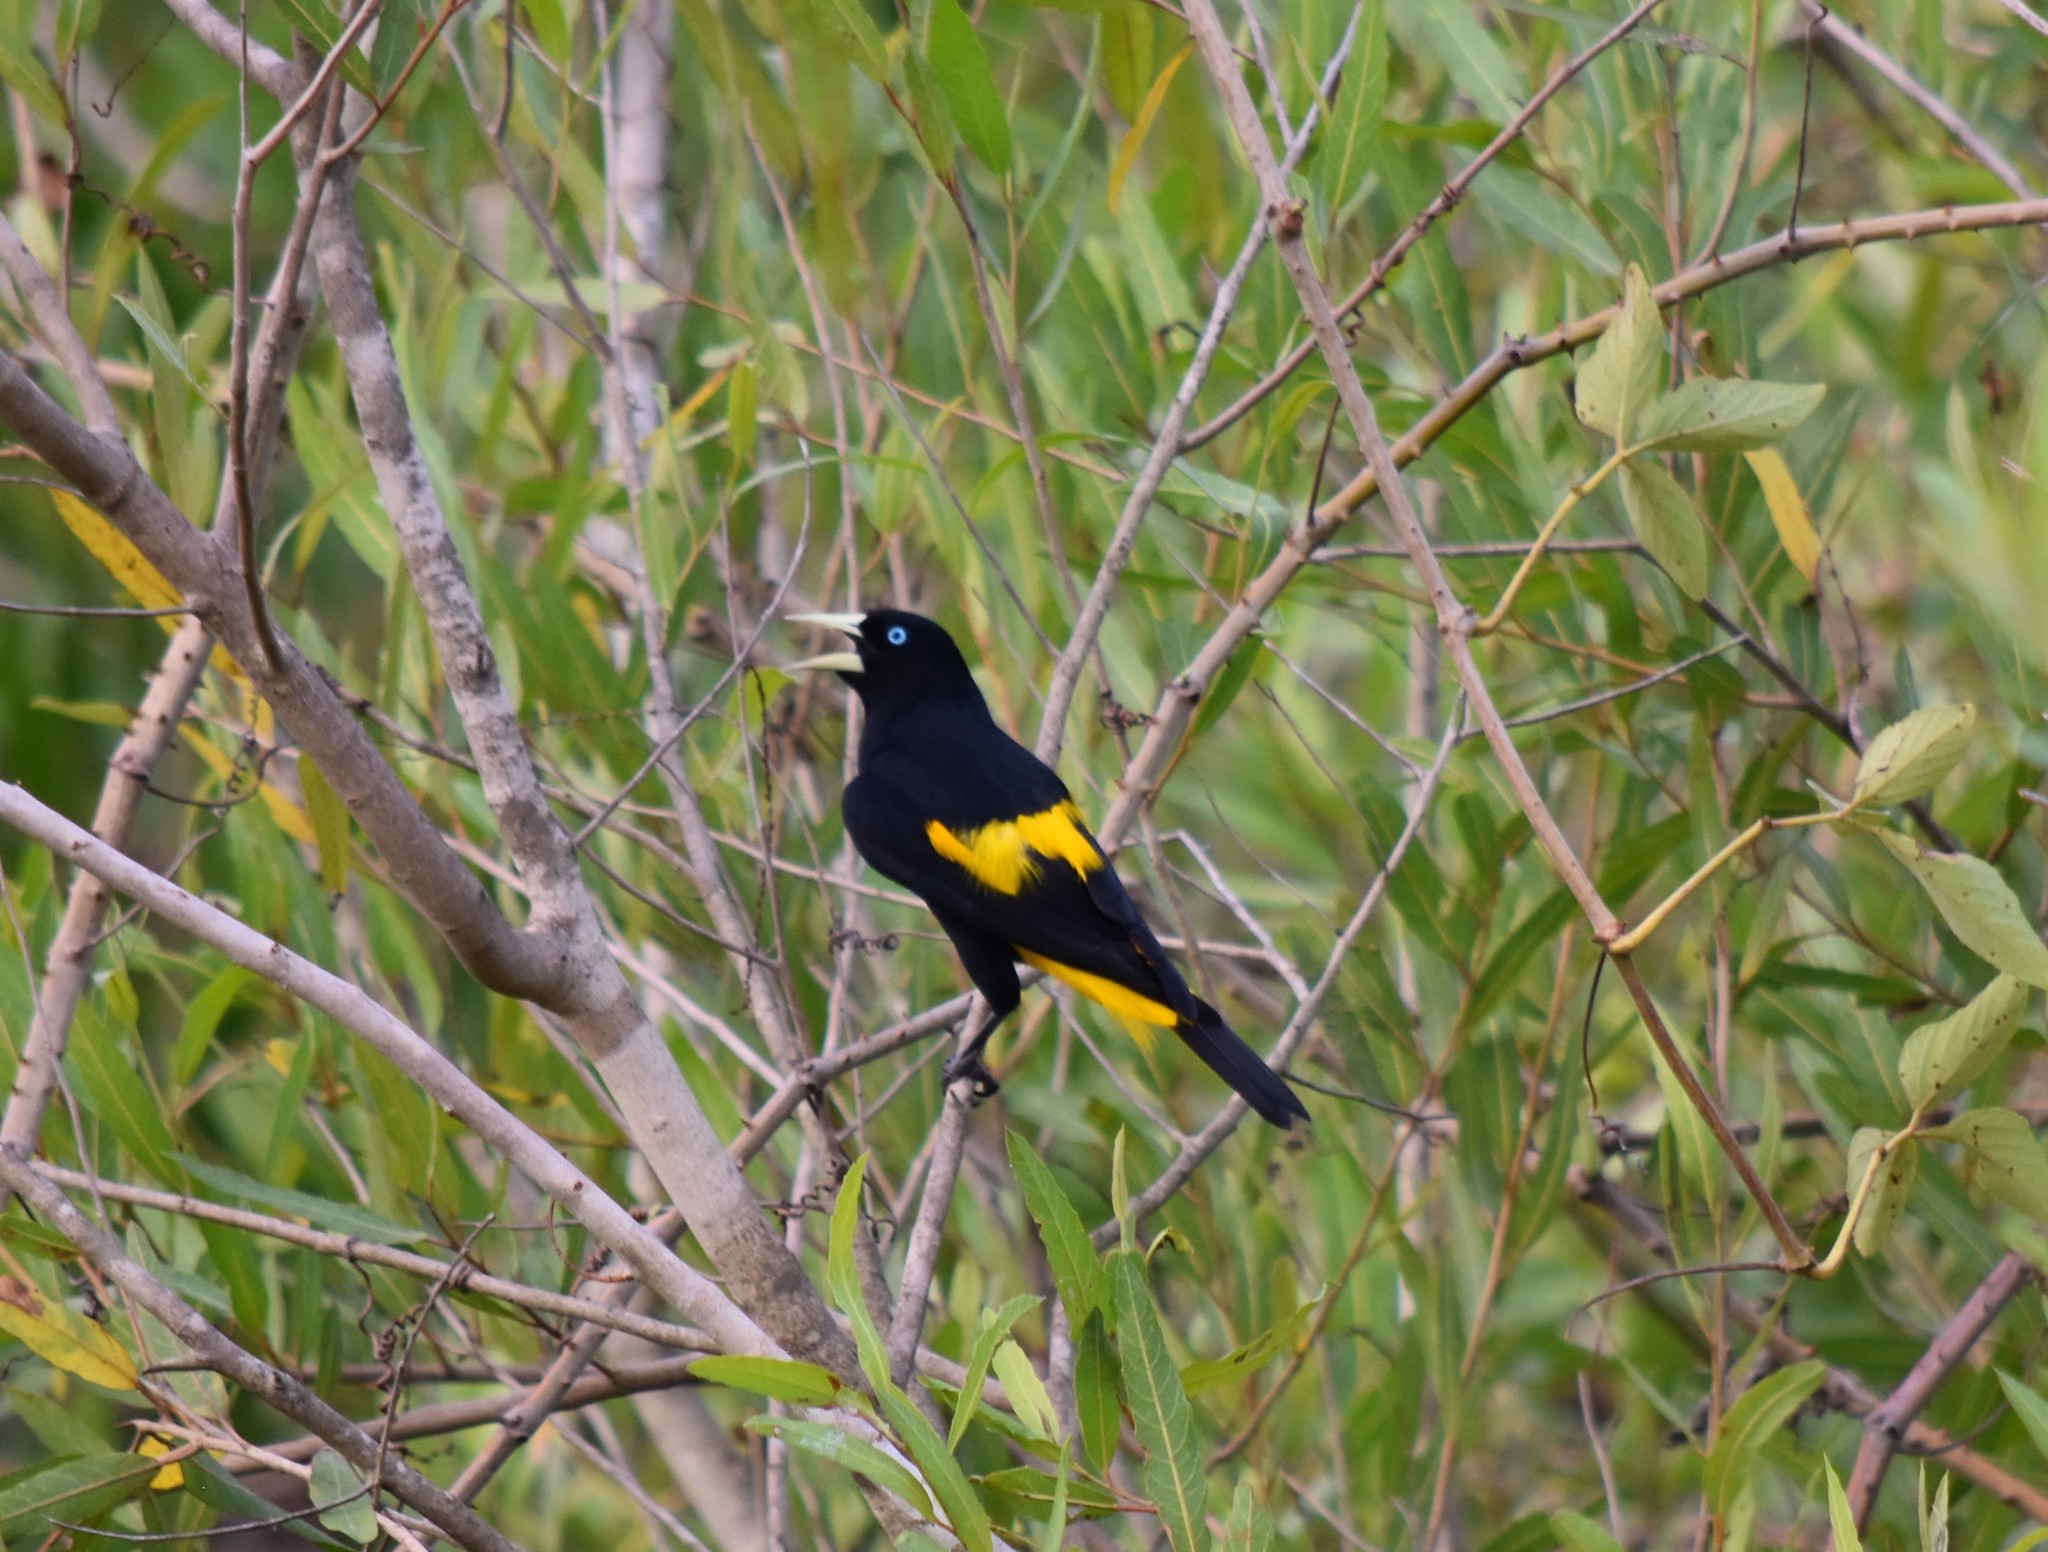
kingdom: Animalia
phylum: Chordata
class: Aves
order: Passeriformes
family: Icteridae
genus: Cacicus
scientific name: Cacicus cela
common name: Yellow-rumped cacique
